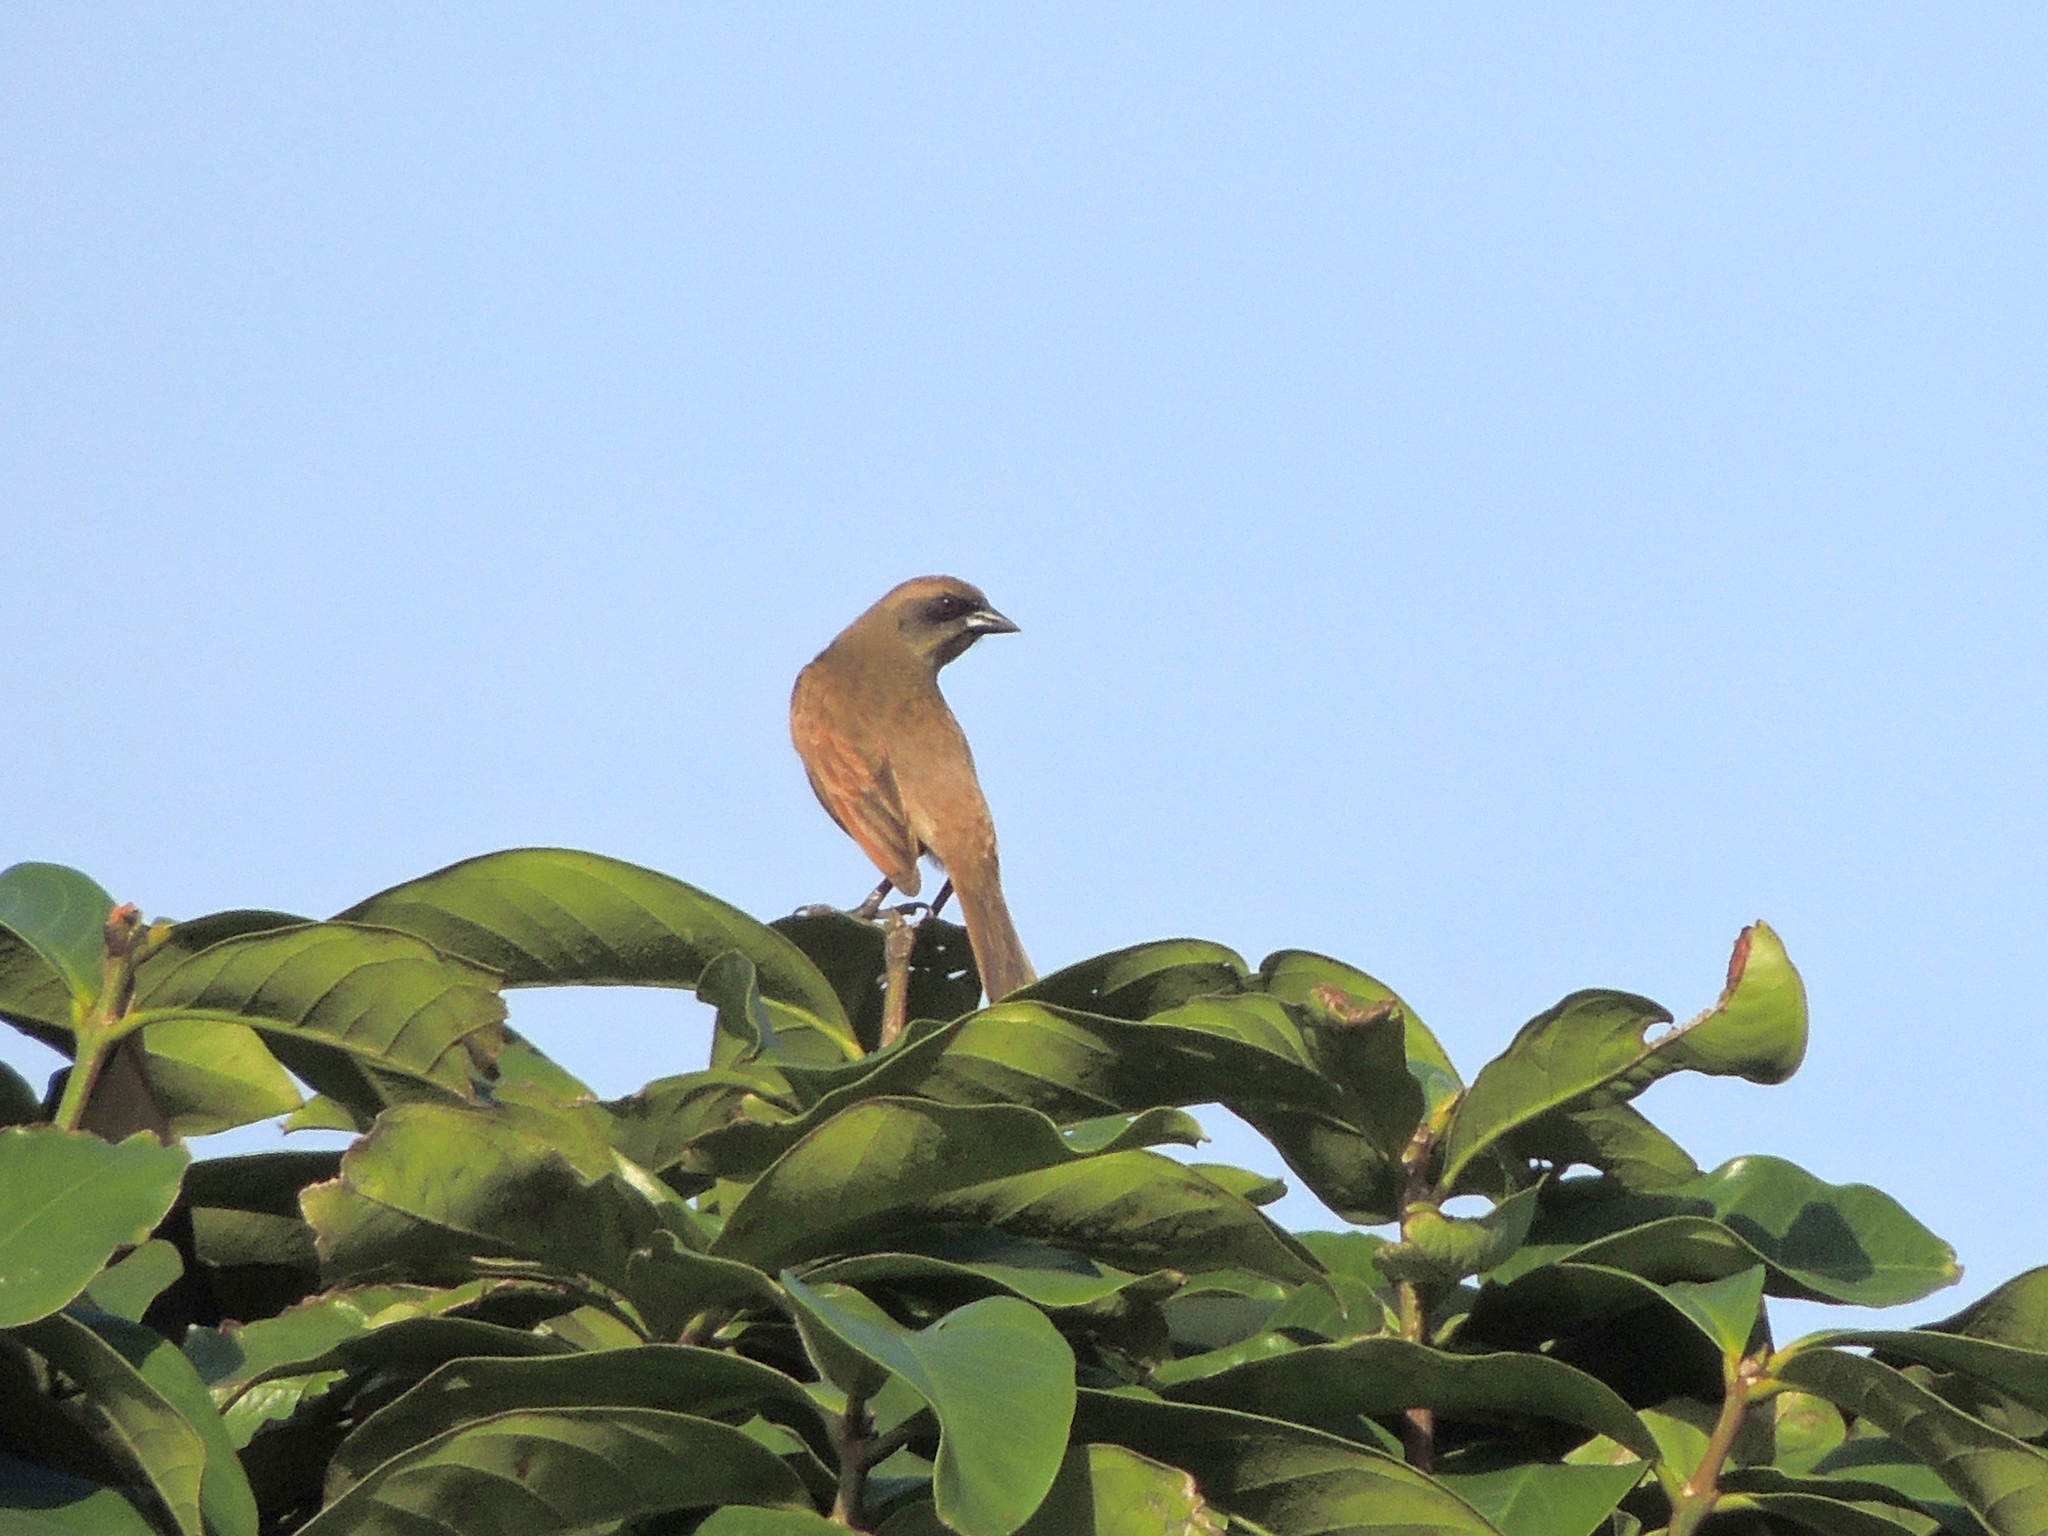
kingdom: Animalia
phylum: Chordata
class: Aves
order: Passeriformes
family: Icteridae
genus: Agelaioides
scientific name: Agelaioides badius
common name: Baywing
